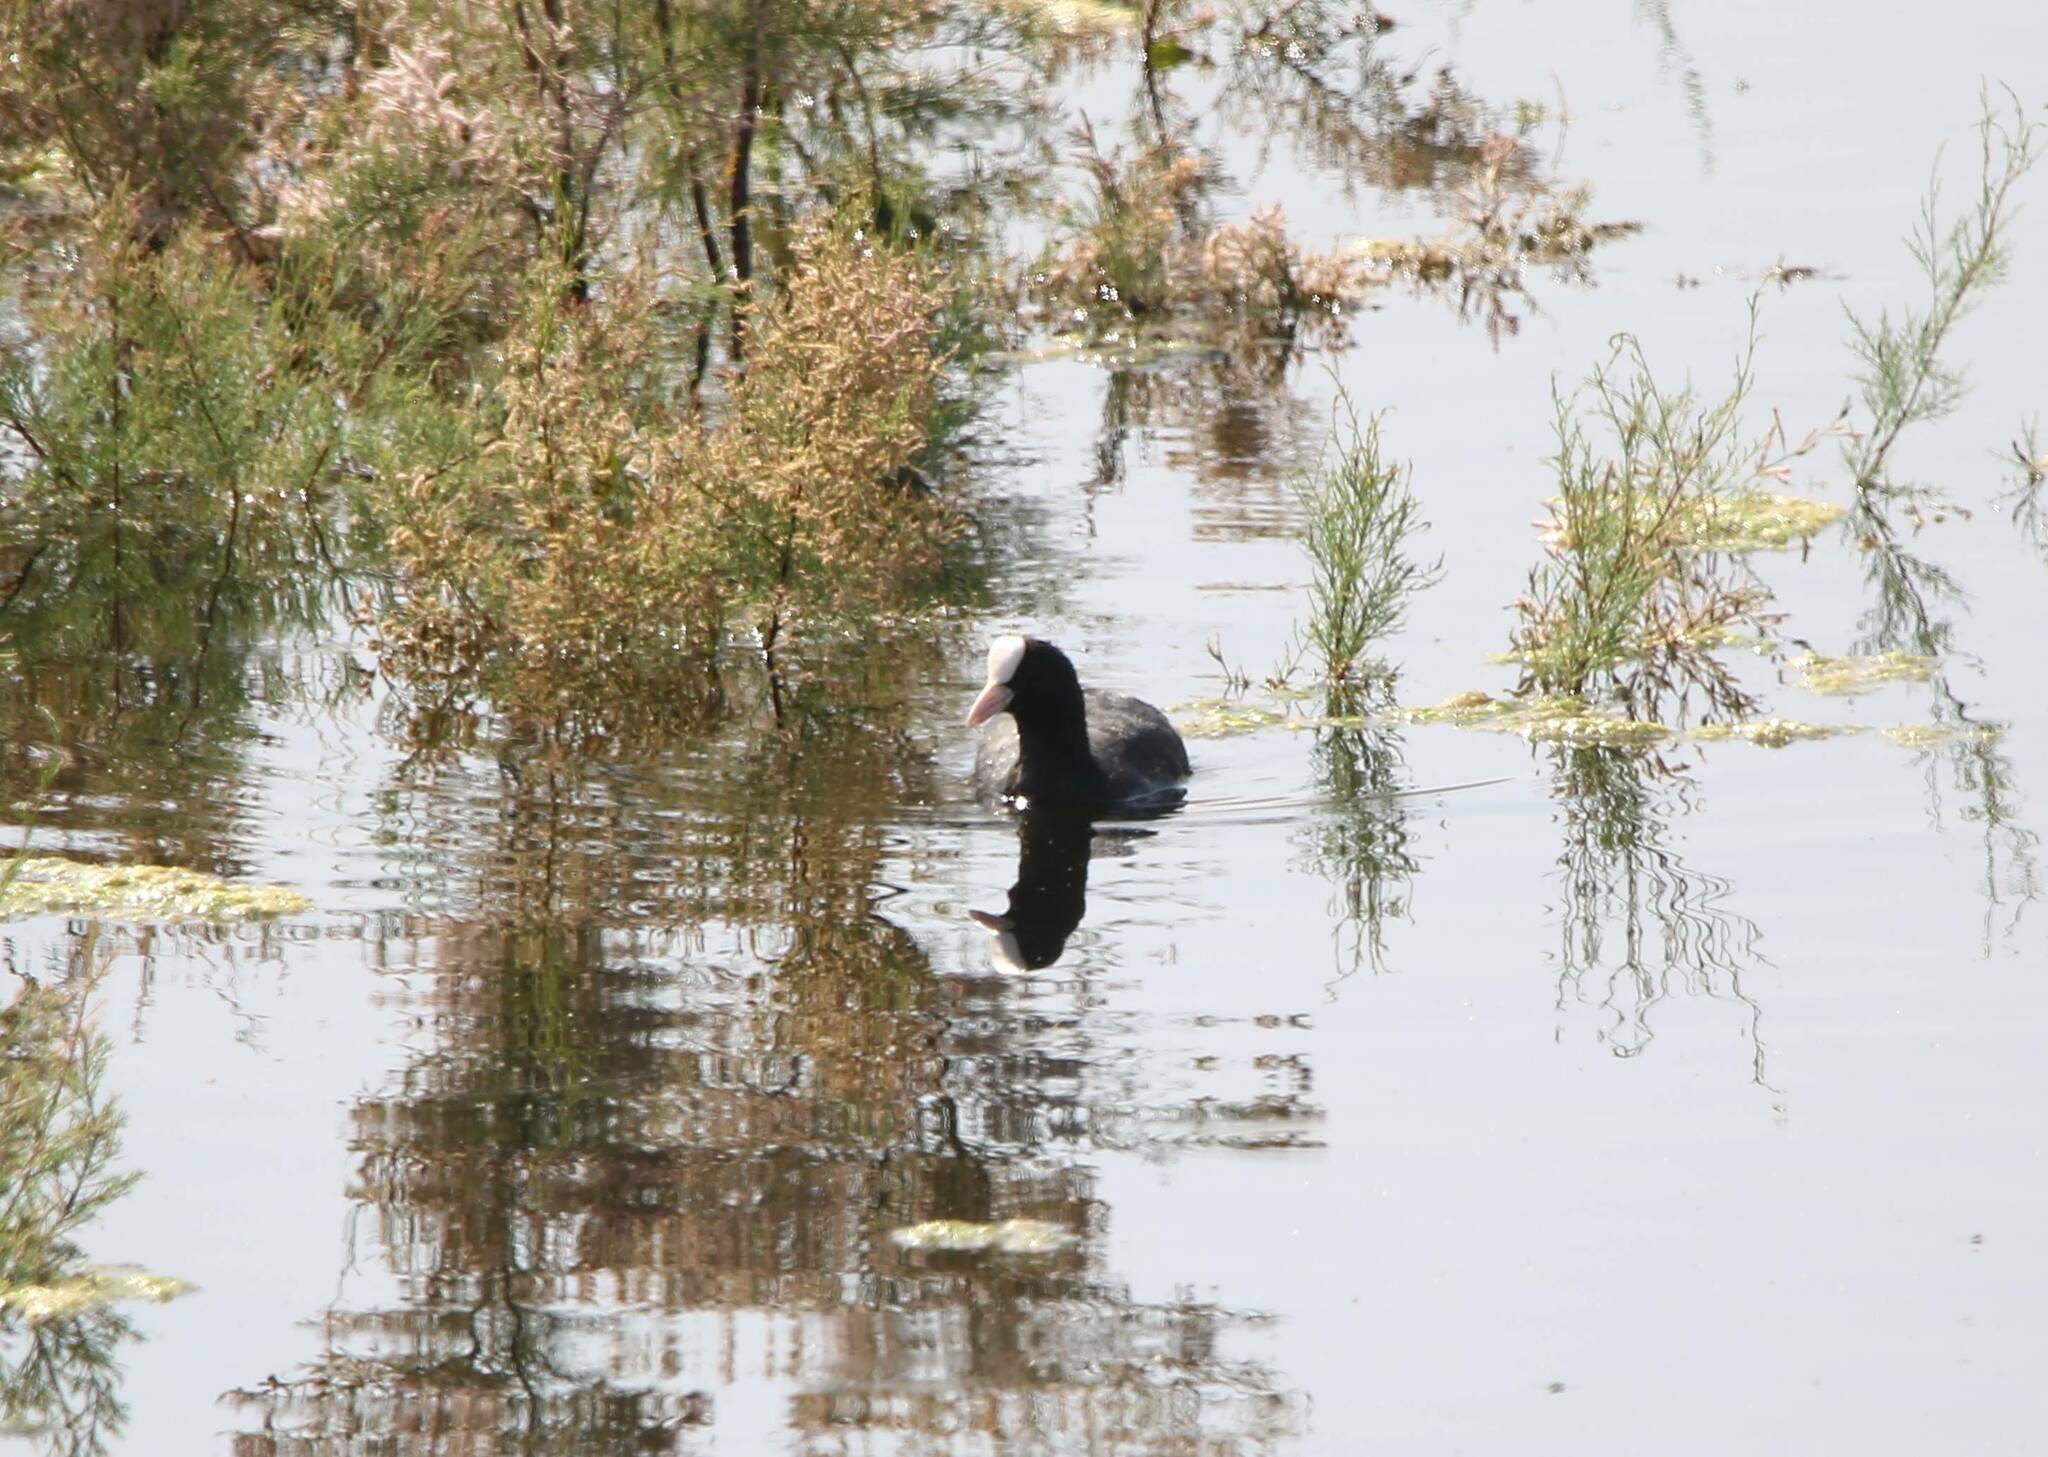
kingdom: Animalia
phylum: Chordata
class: Aves
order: Gruiformes
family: Rallidae
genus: Fulica
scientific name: Fulica atra
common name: Eurasian coot
